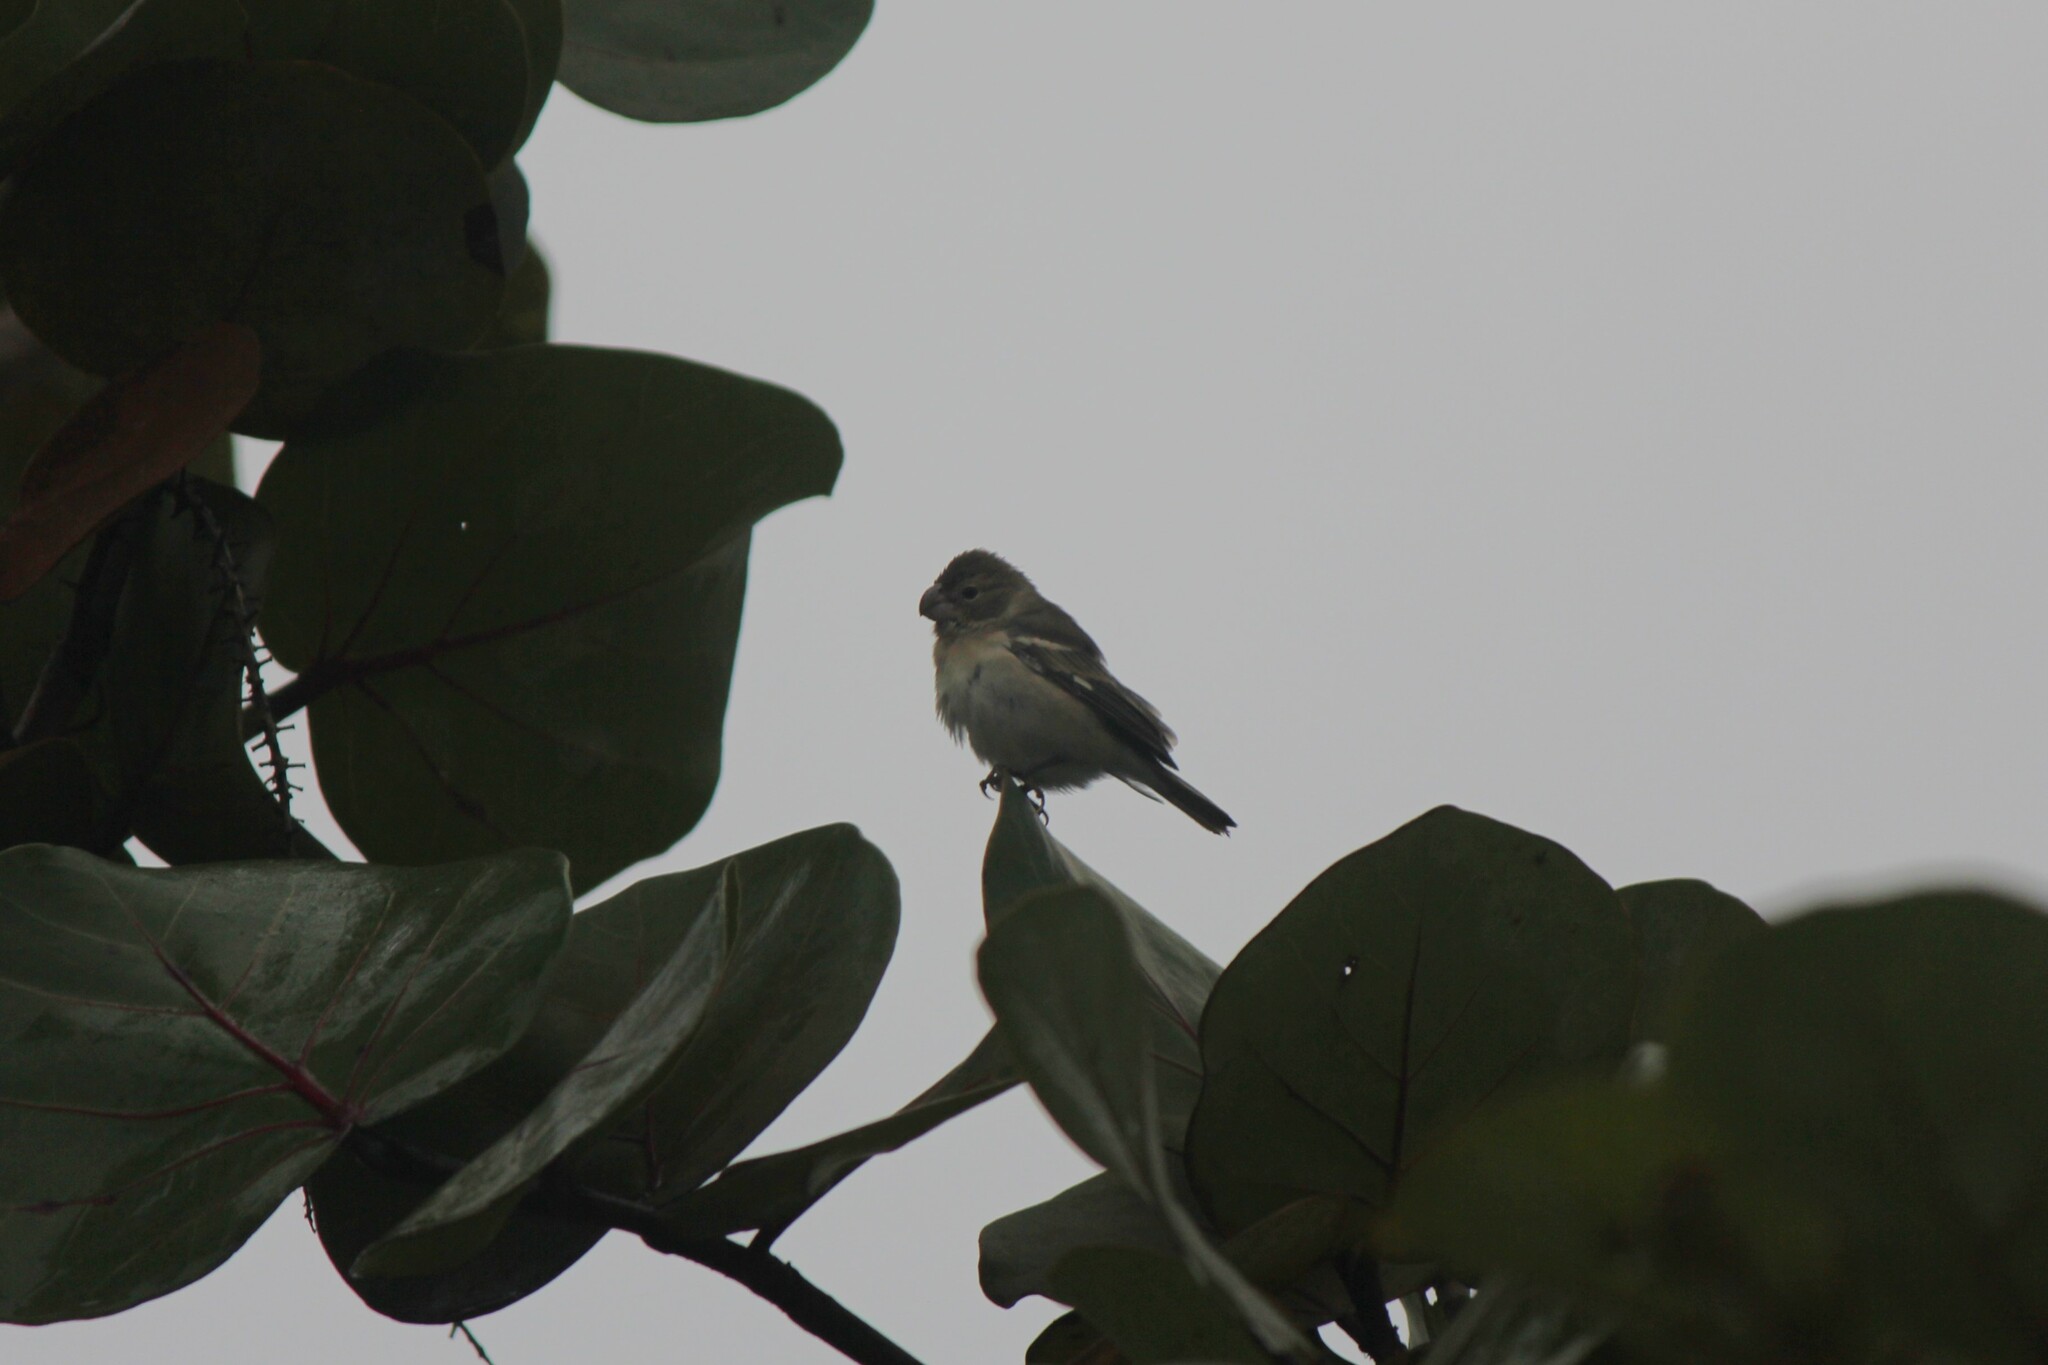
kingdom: Animalia
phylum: Chordata
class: Aves
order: Passeriformes
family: Thraupidae
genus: Sporophila
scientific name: Sporophila peruviana
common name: Parrot-billed seedeater
